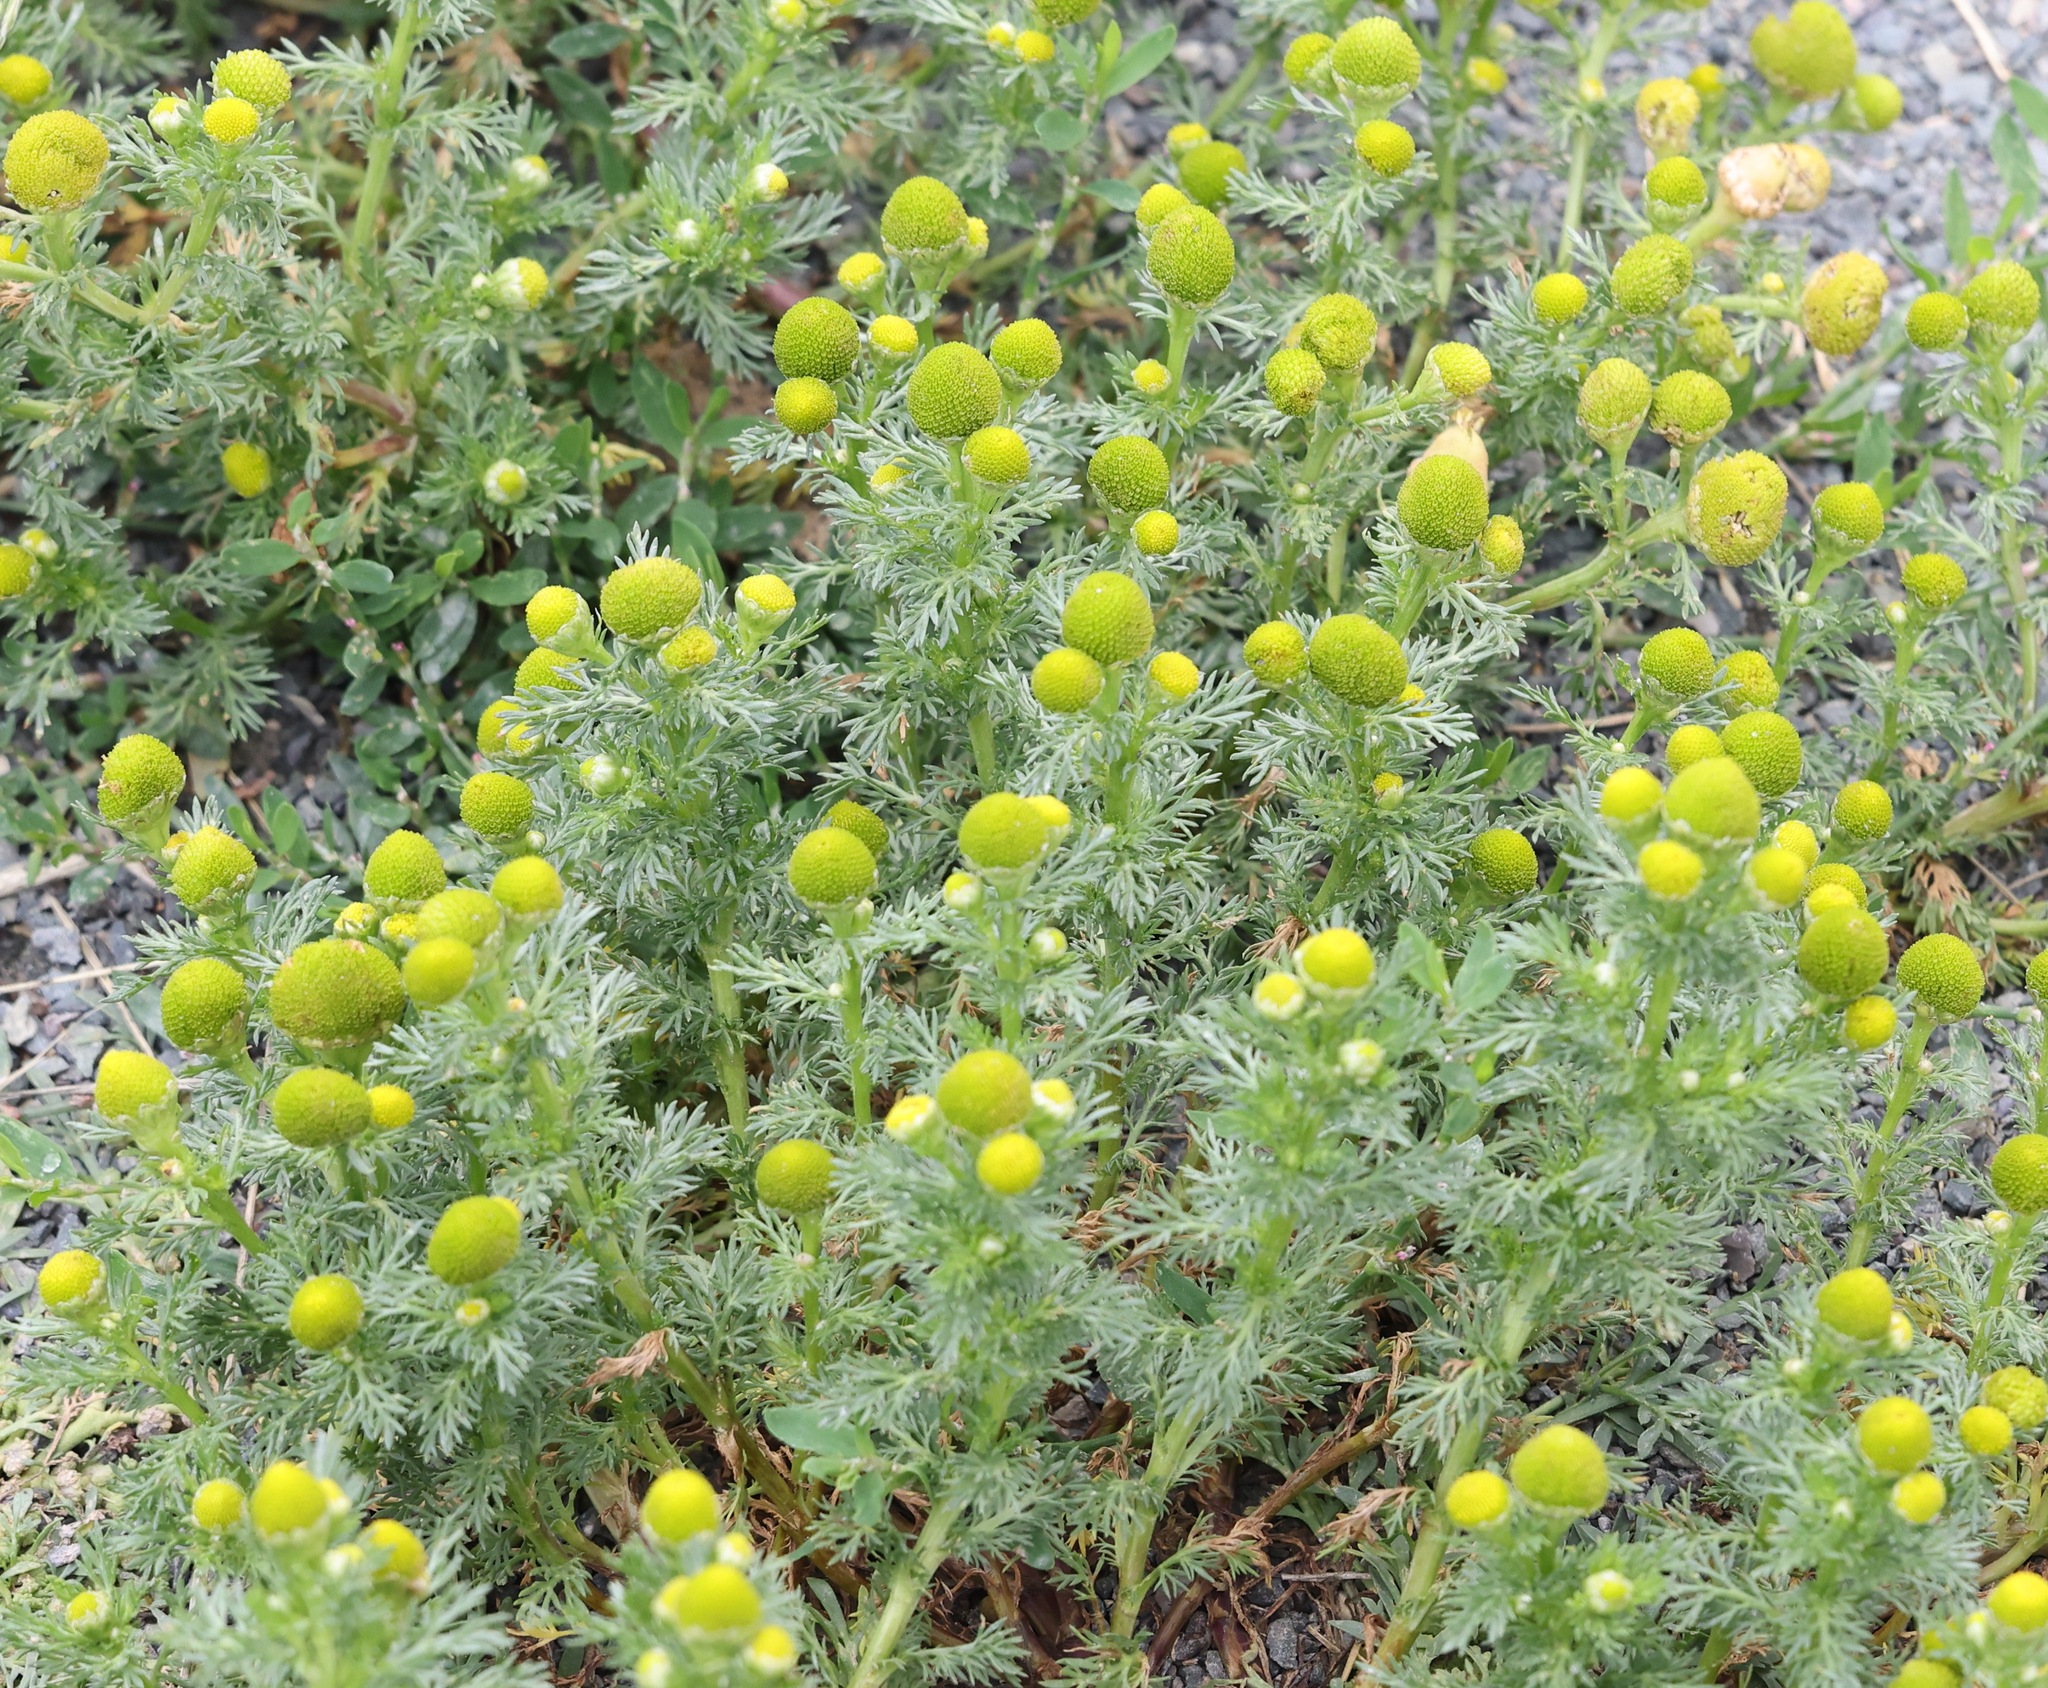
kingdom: Plantae
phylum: Tracheophyta
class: Magnoliopsida
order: Asterales
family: Asteraceae
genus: Matricaria
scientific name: Matricaria discoidea
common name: Disc mayweed
